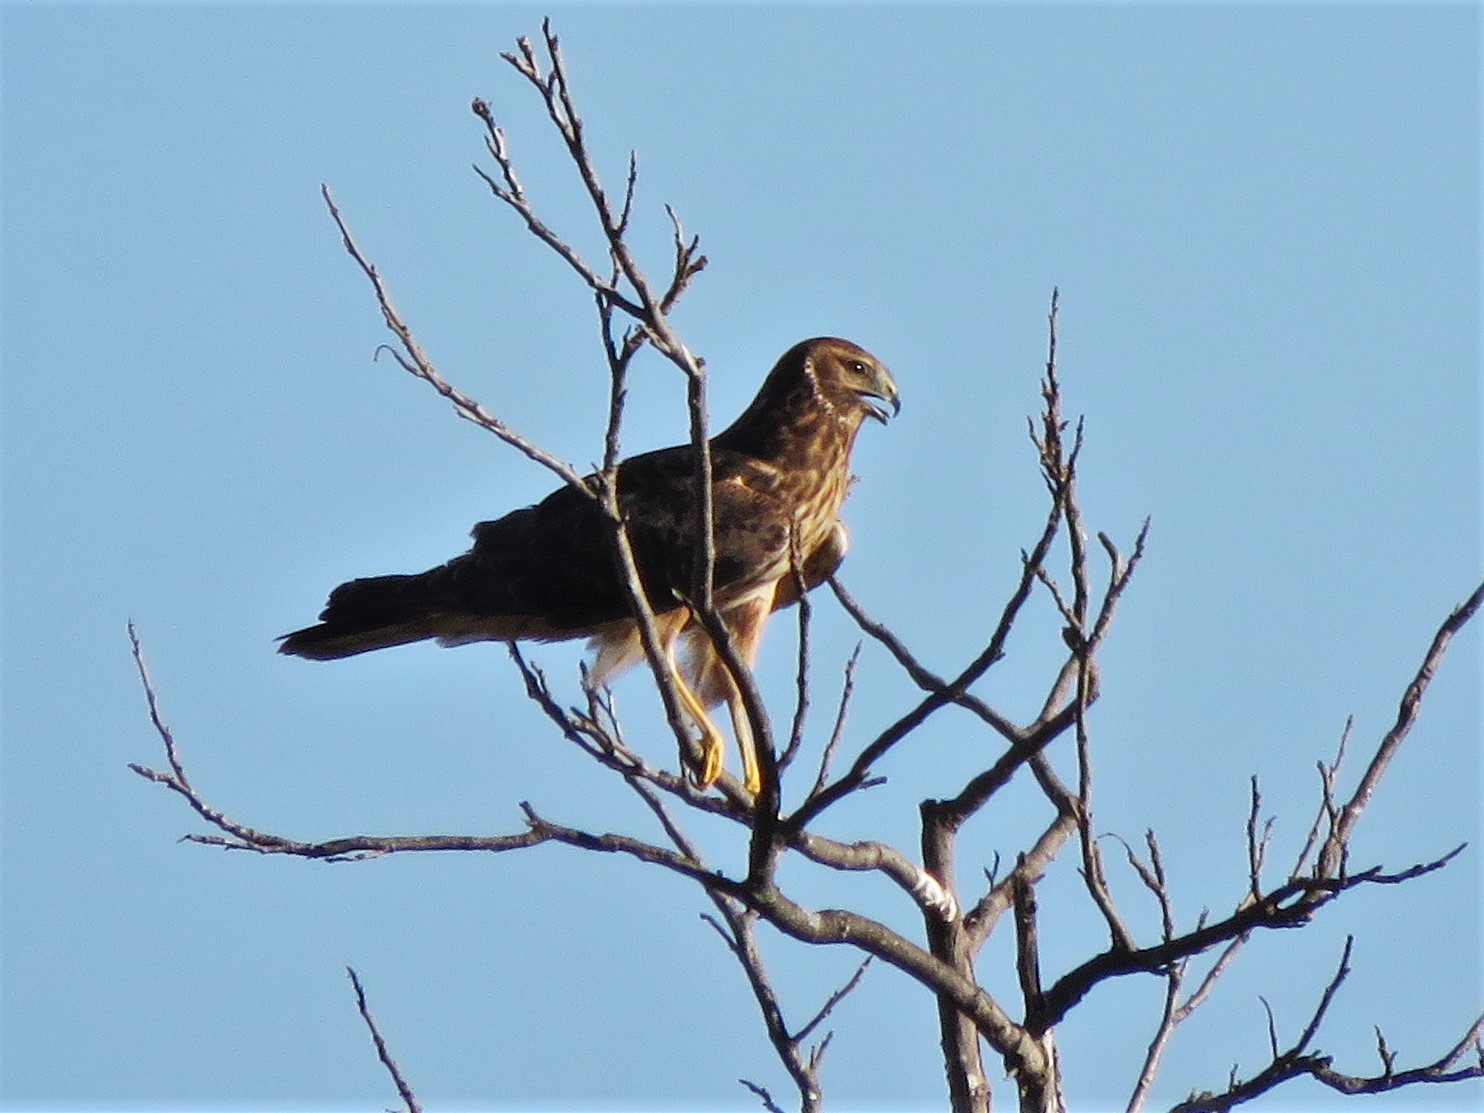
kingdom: Animalia
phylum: Chordata
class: Aves
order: Accipitriformes
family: Accipitridae
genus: Circus
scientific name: Circus cyaneus
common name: Hen harrier
